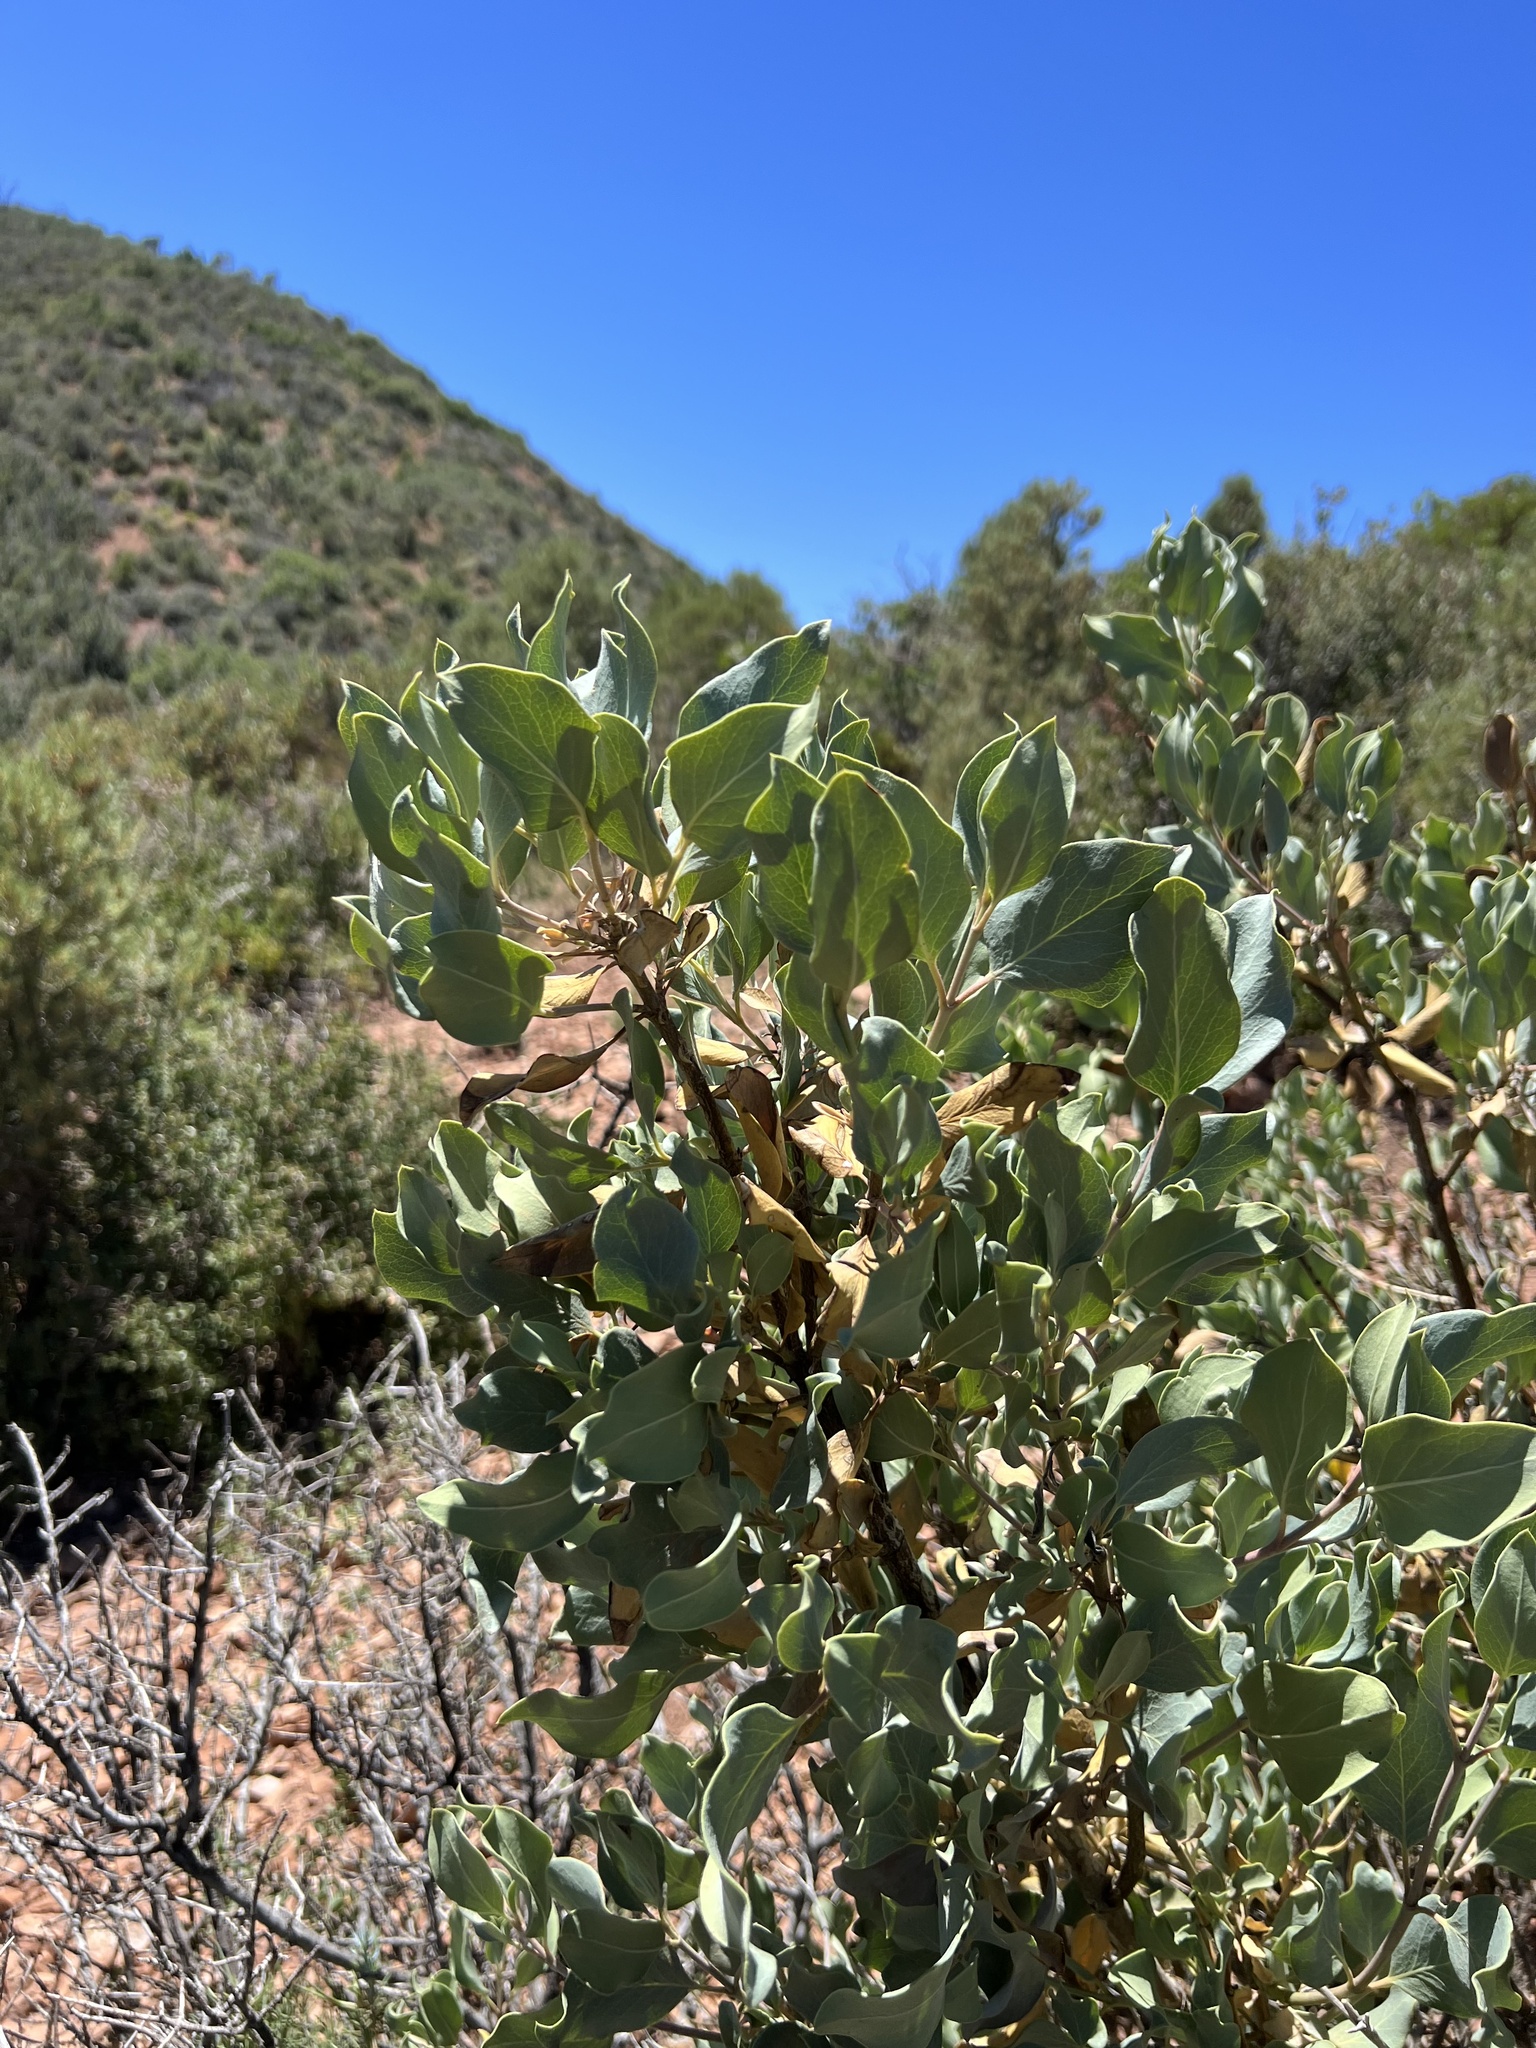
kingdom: Plantae
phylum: Tracheophyta
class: Magnoliopsida
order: Garryales
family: Garryaceae
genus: Garrya
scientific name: Garrya flavescens
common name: Ashy silk-tassel
